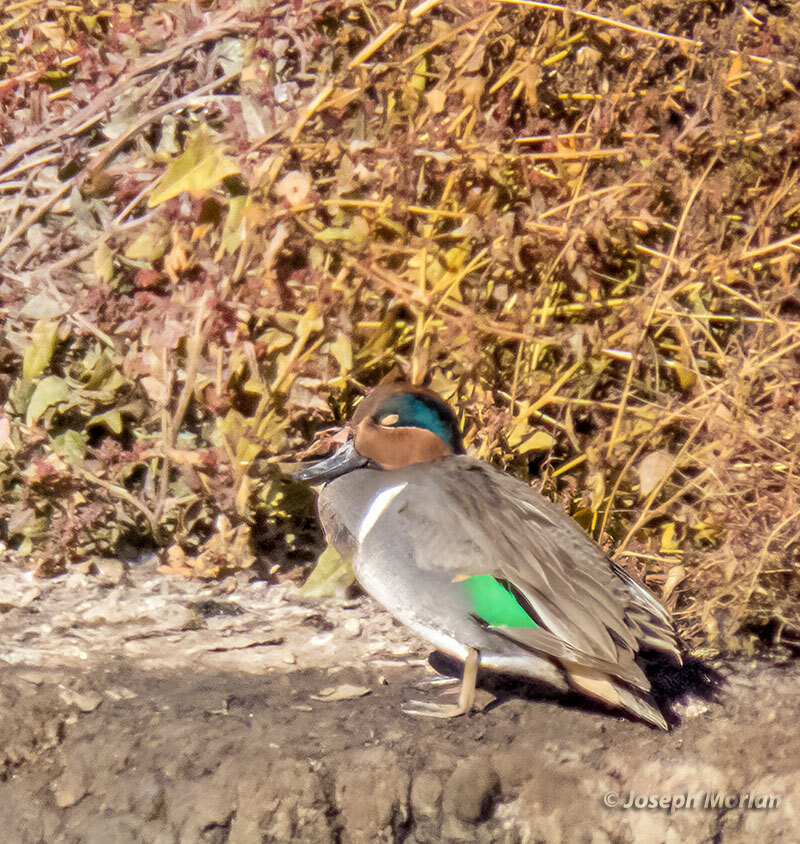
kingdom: Animalia
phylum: Chordata
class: Aves
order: Anseriformes
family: Anatidae
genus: Anas
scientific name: Anas crecca
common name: Eurasian teal
